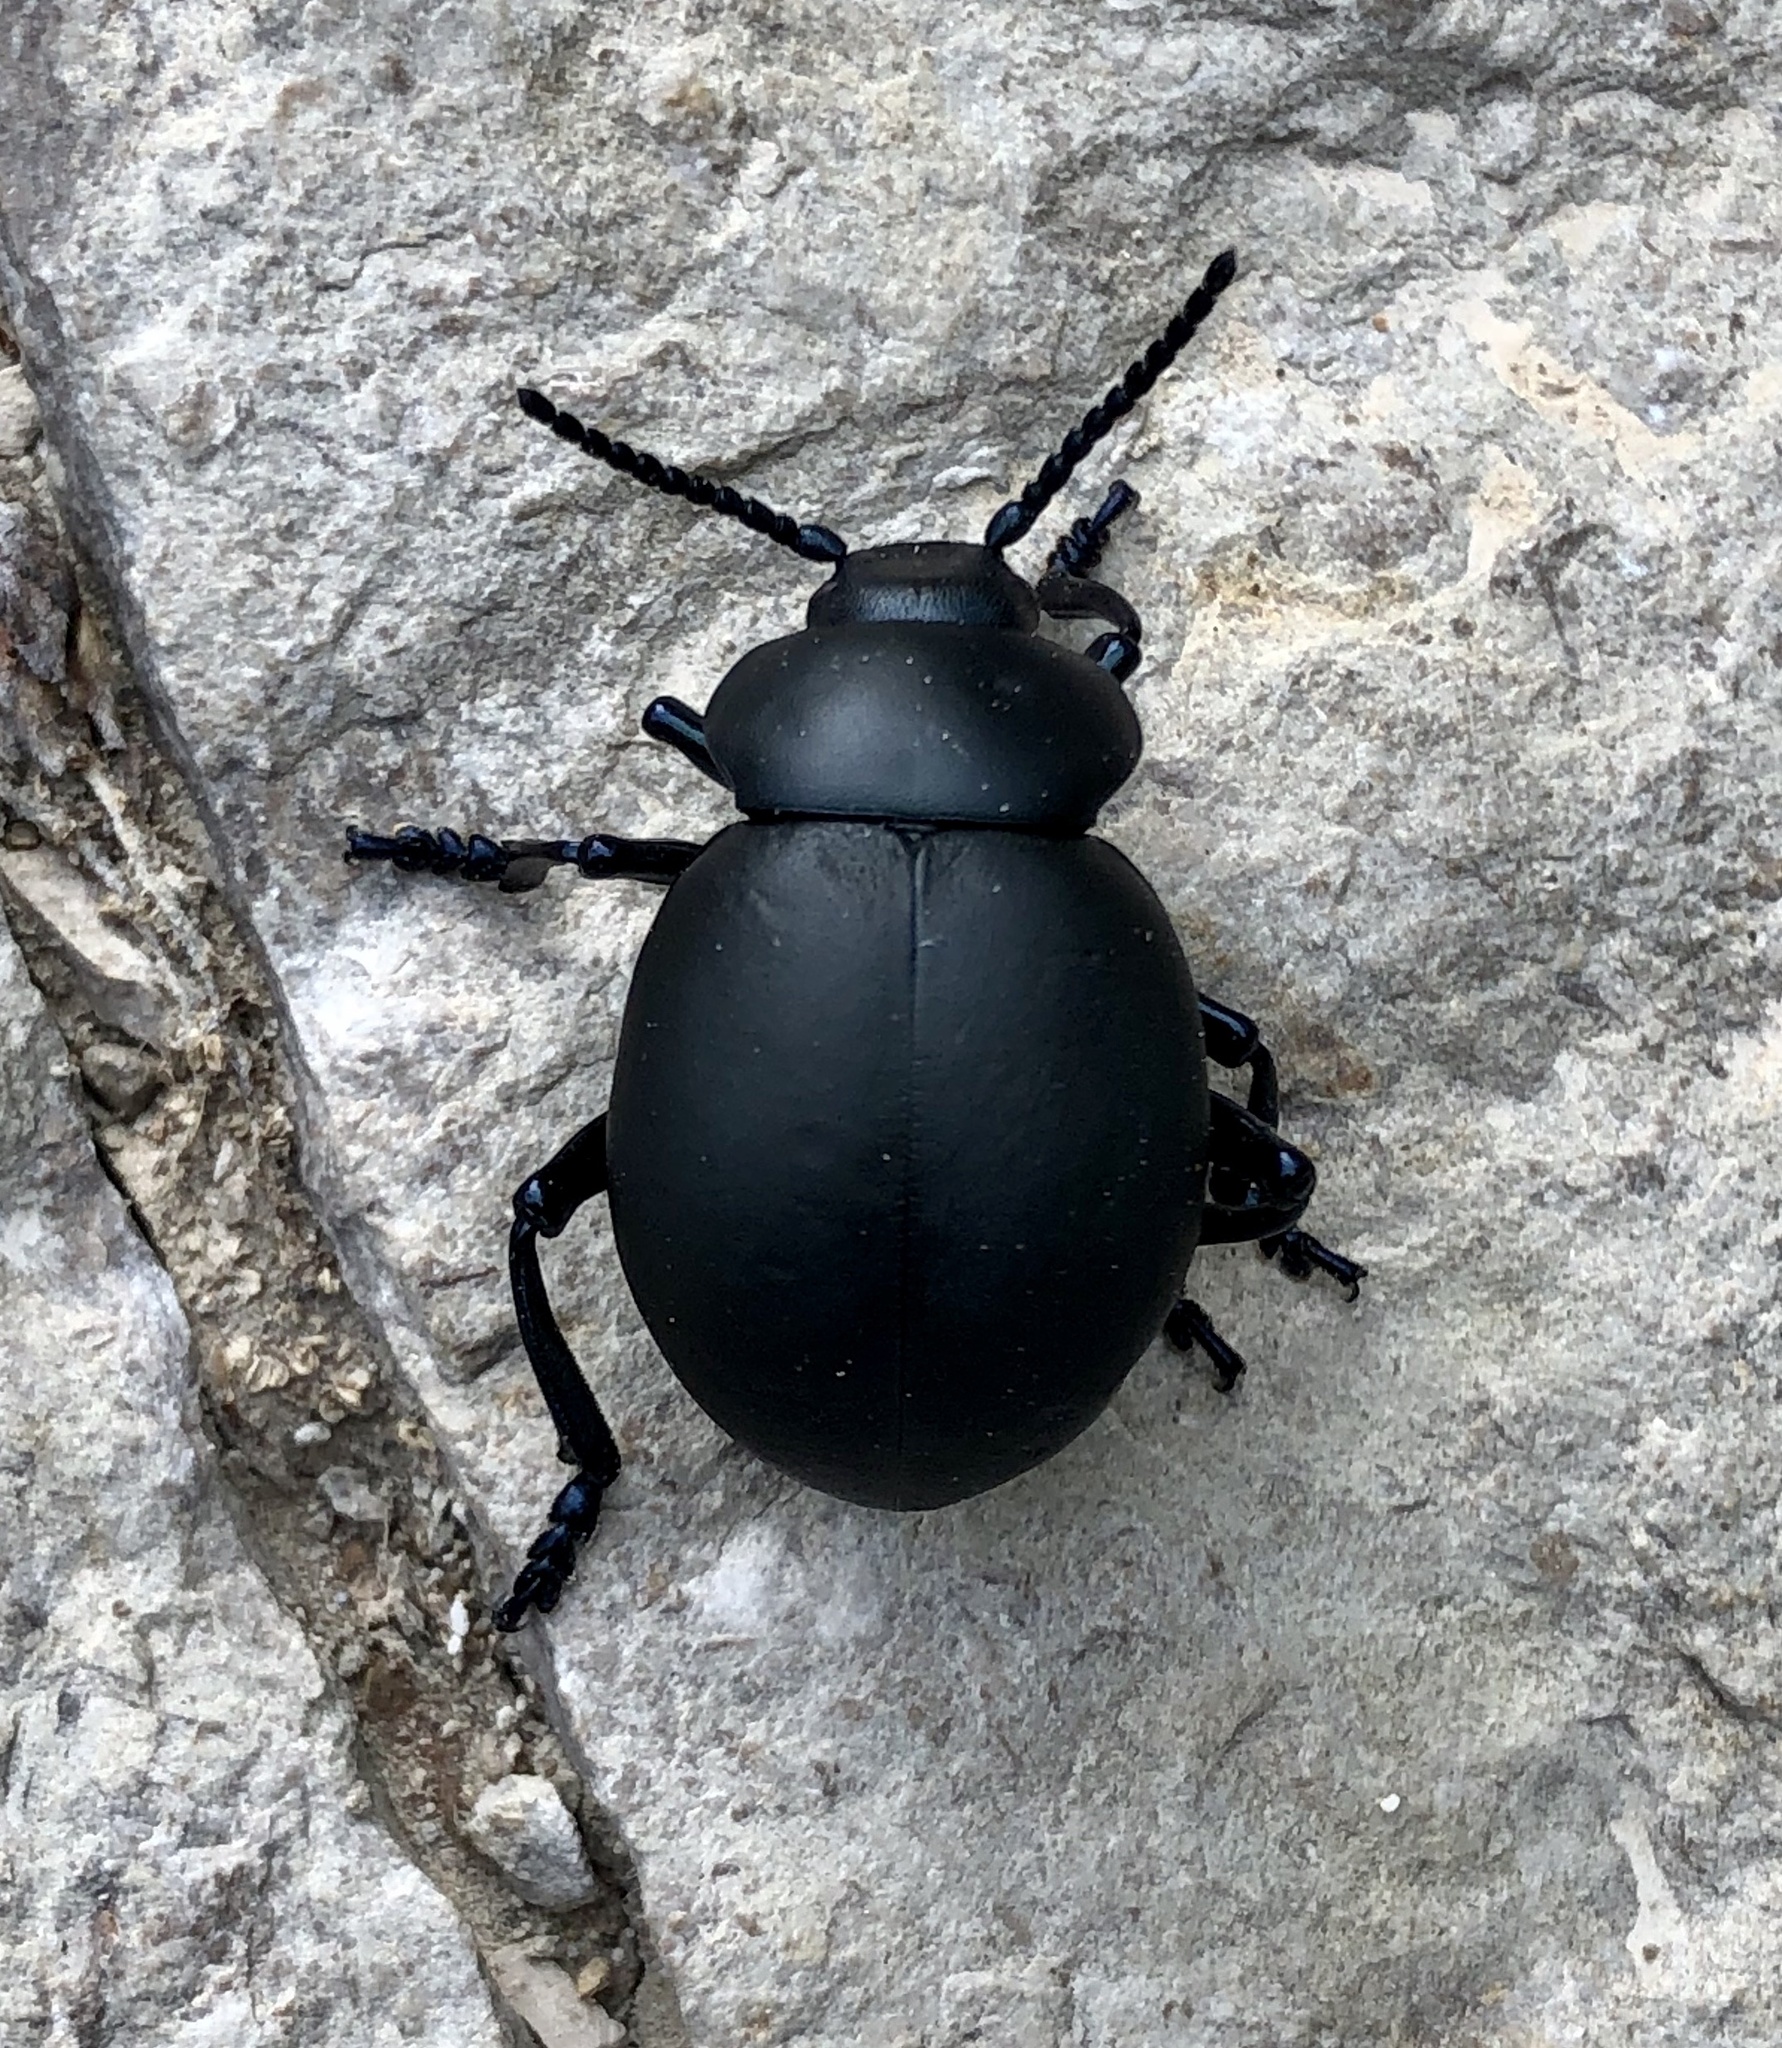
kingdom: Animalia
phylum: Arthropoda
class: Insecta
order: Coleoptera
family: Chrysomelidae
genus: Timarcha
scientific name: Timarcha tenebricosa
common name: Bloody-nosed beetle
